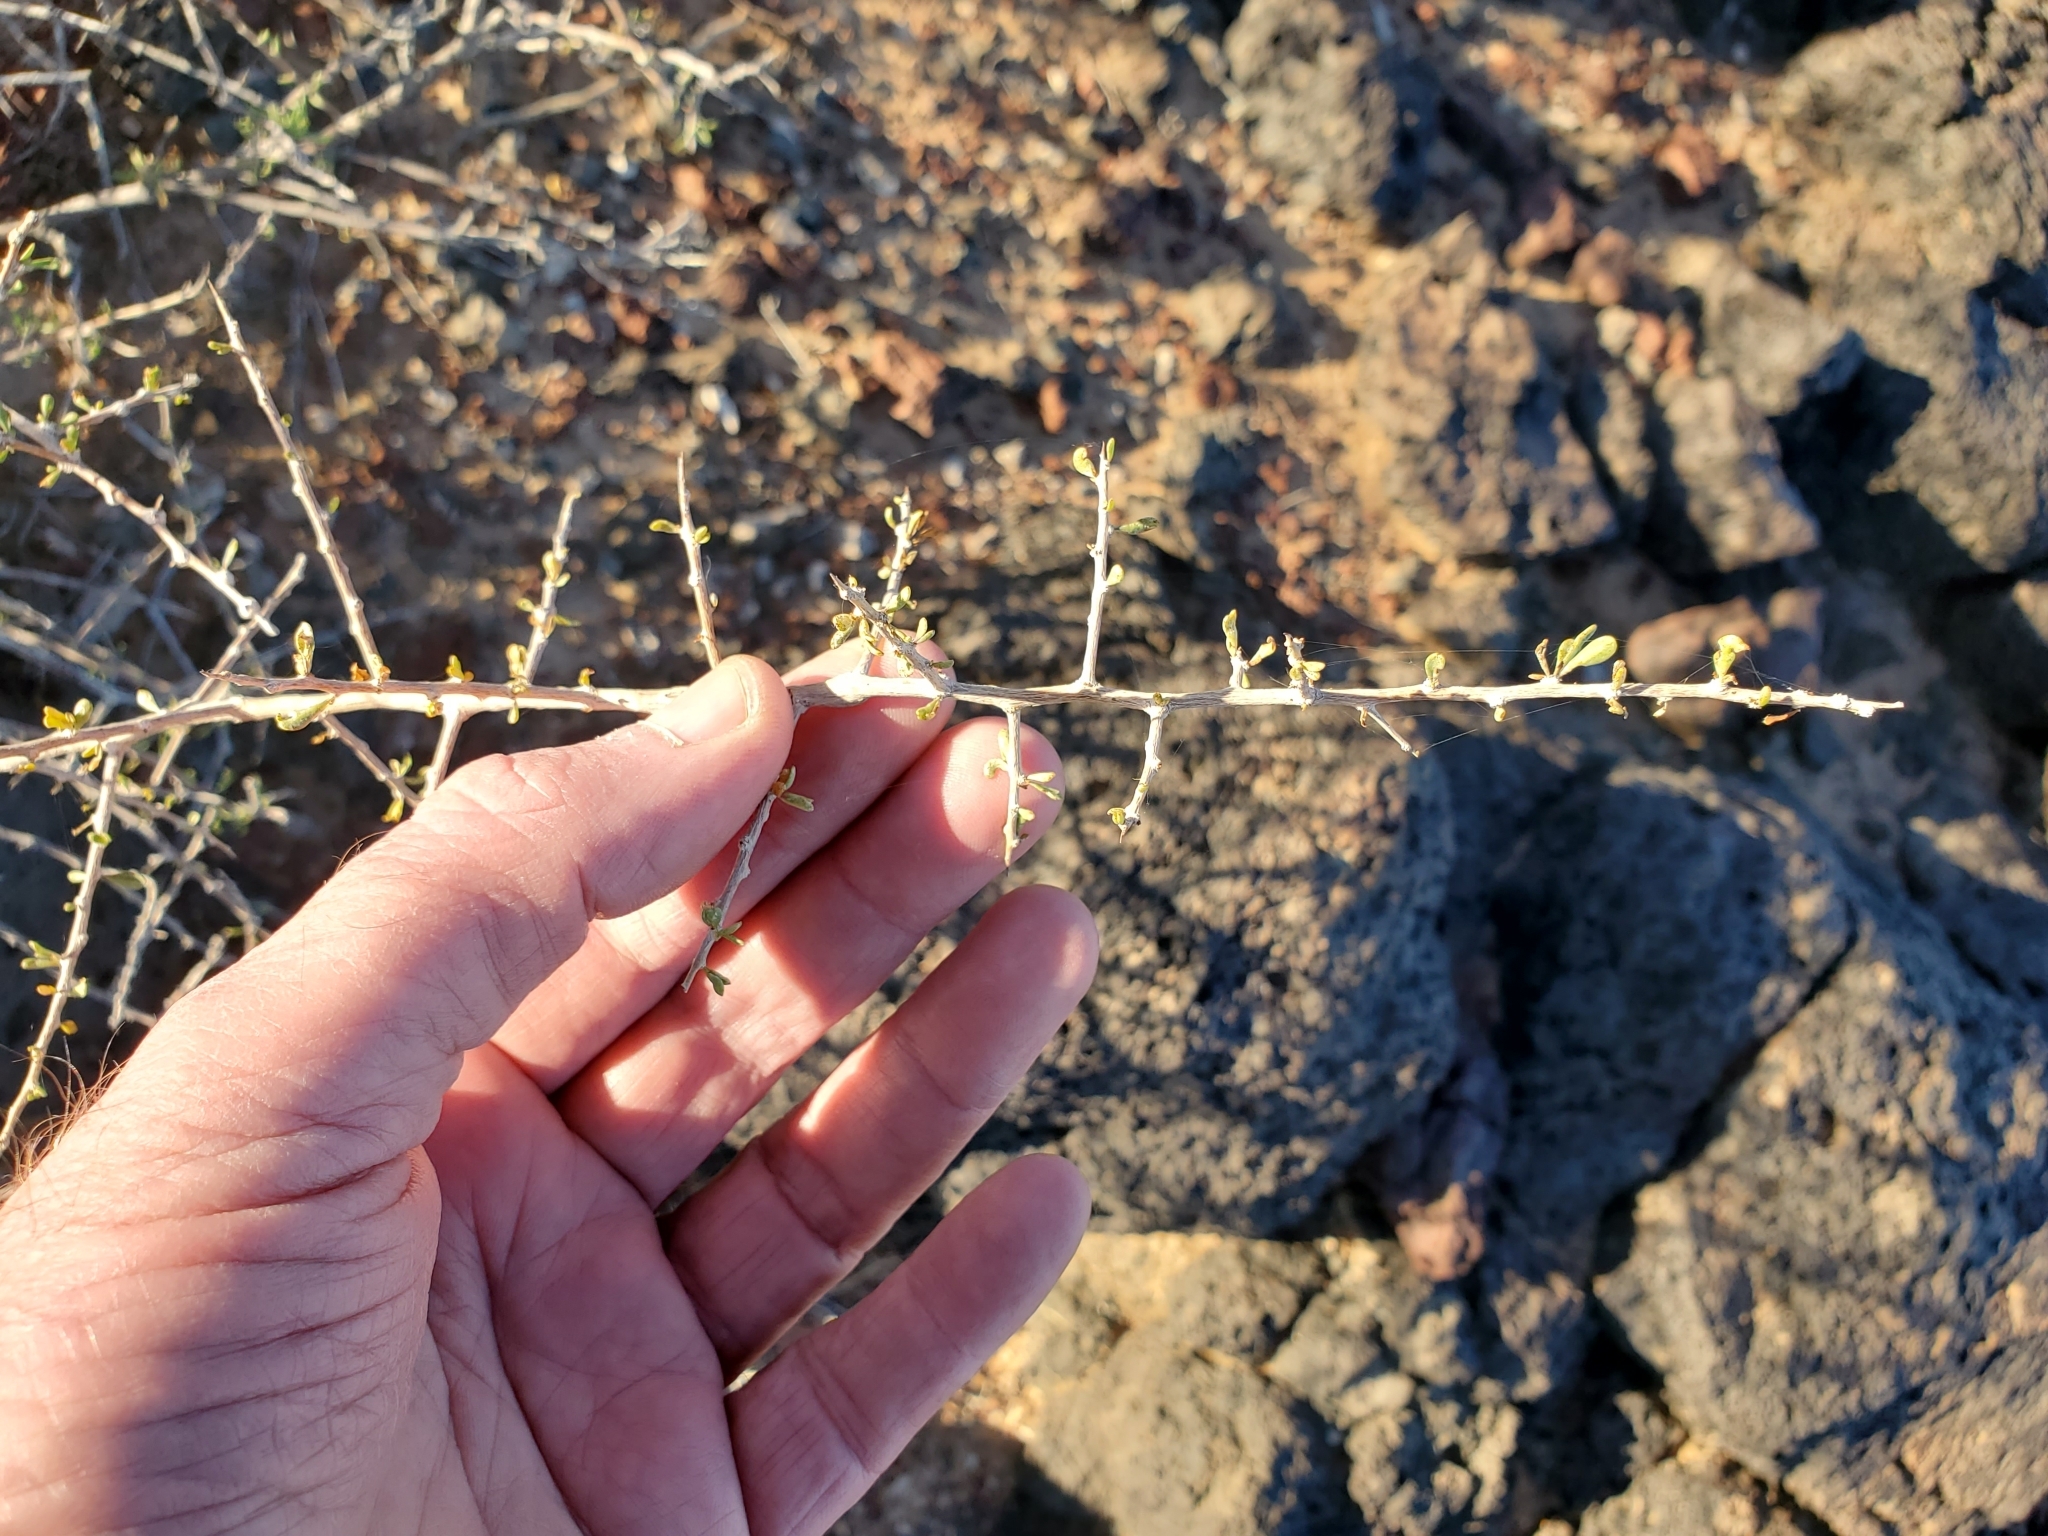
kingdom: Plantae
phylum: Tracheophyta
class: Magnoliopsida
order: Solanales
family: Solanaceae
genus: Lycium
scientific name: Lycium andersonii
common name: Water-jacket
